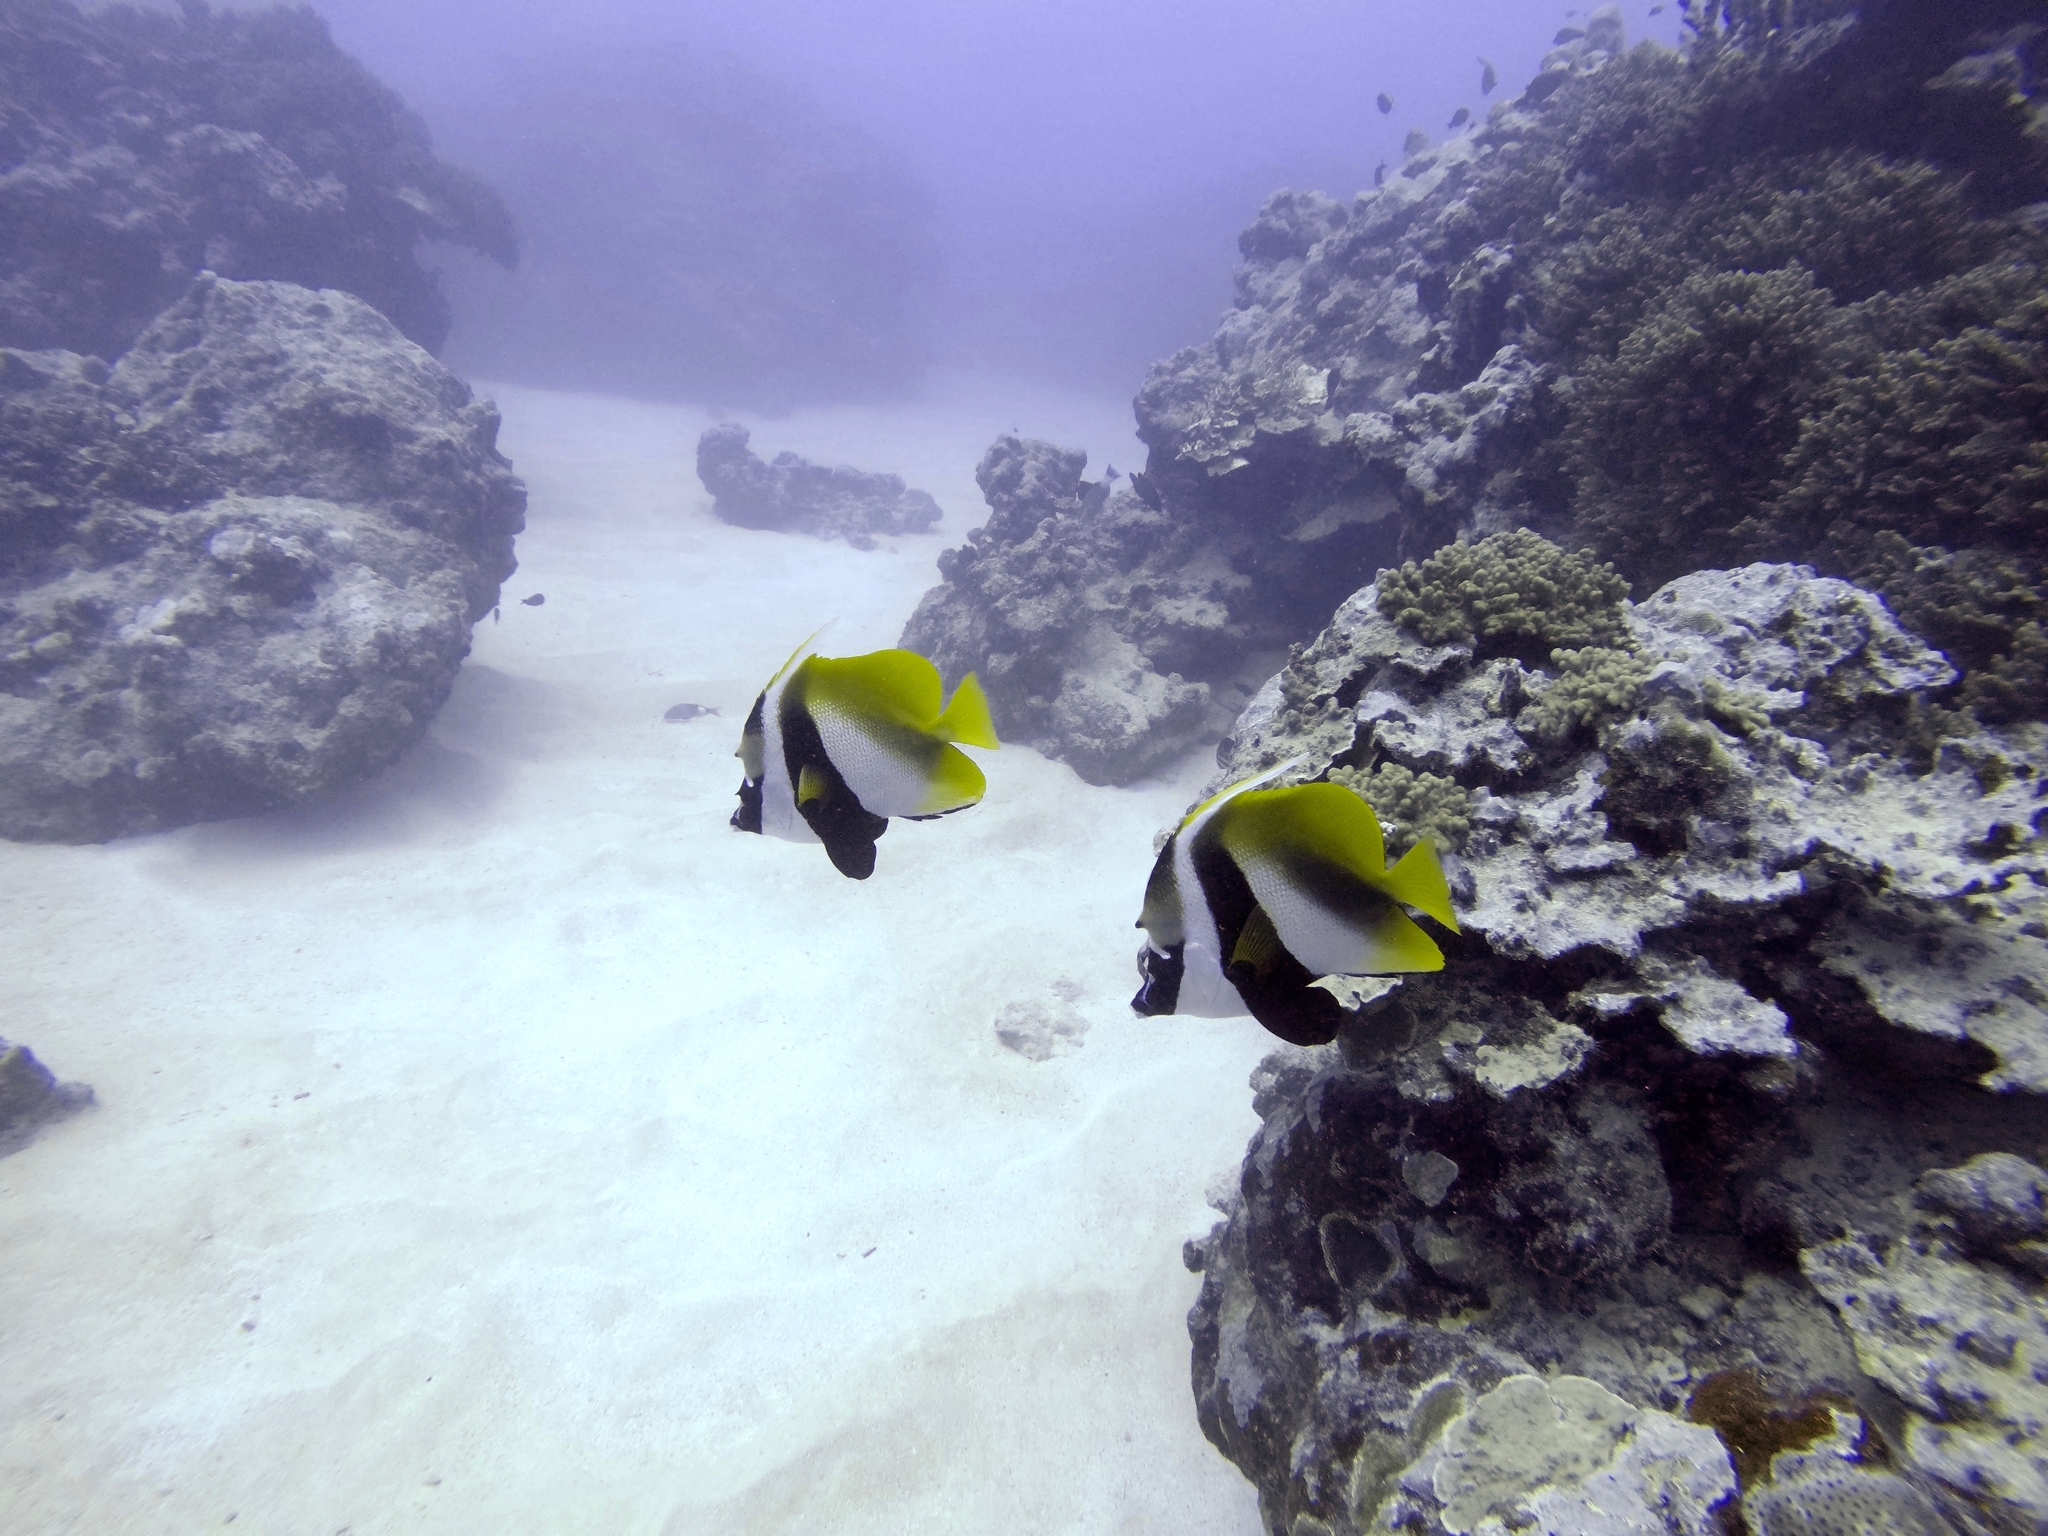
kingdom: Animalia
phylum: Chordata
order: Perciformes
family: Chaetodontidae
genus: Heniochus
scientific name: Heniochus monoceros
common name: Masked bannerfish
